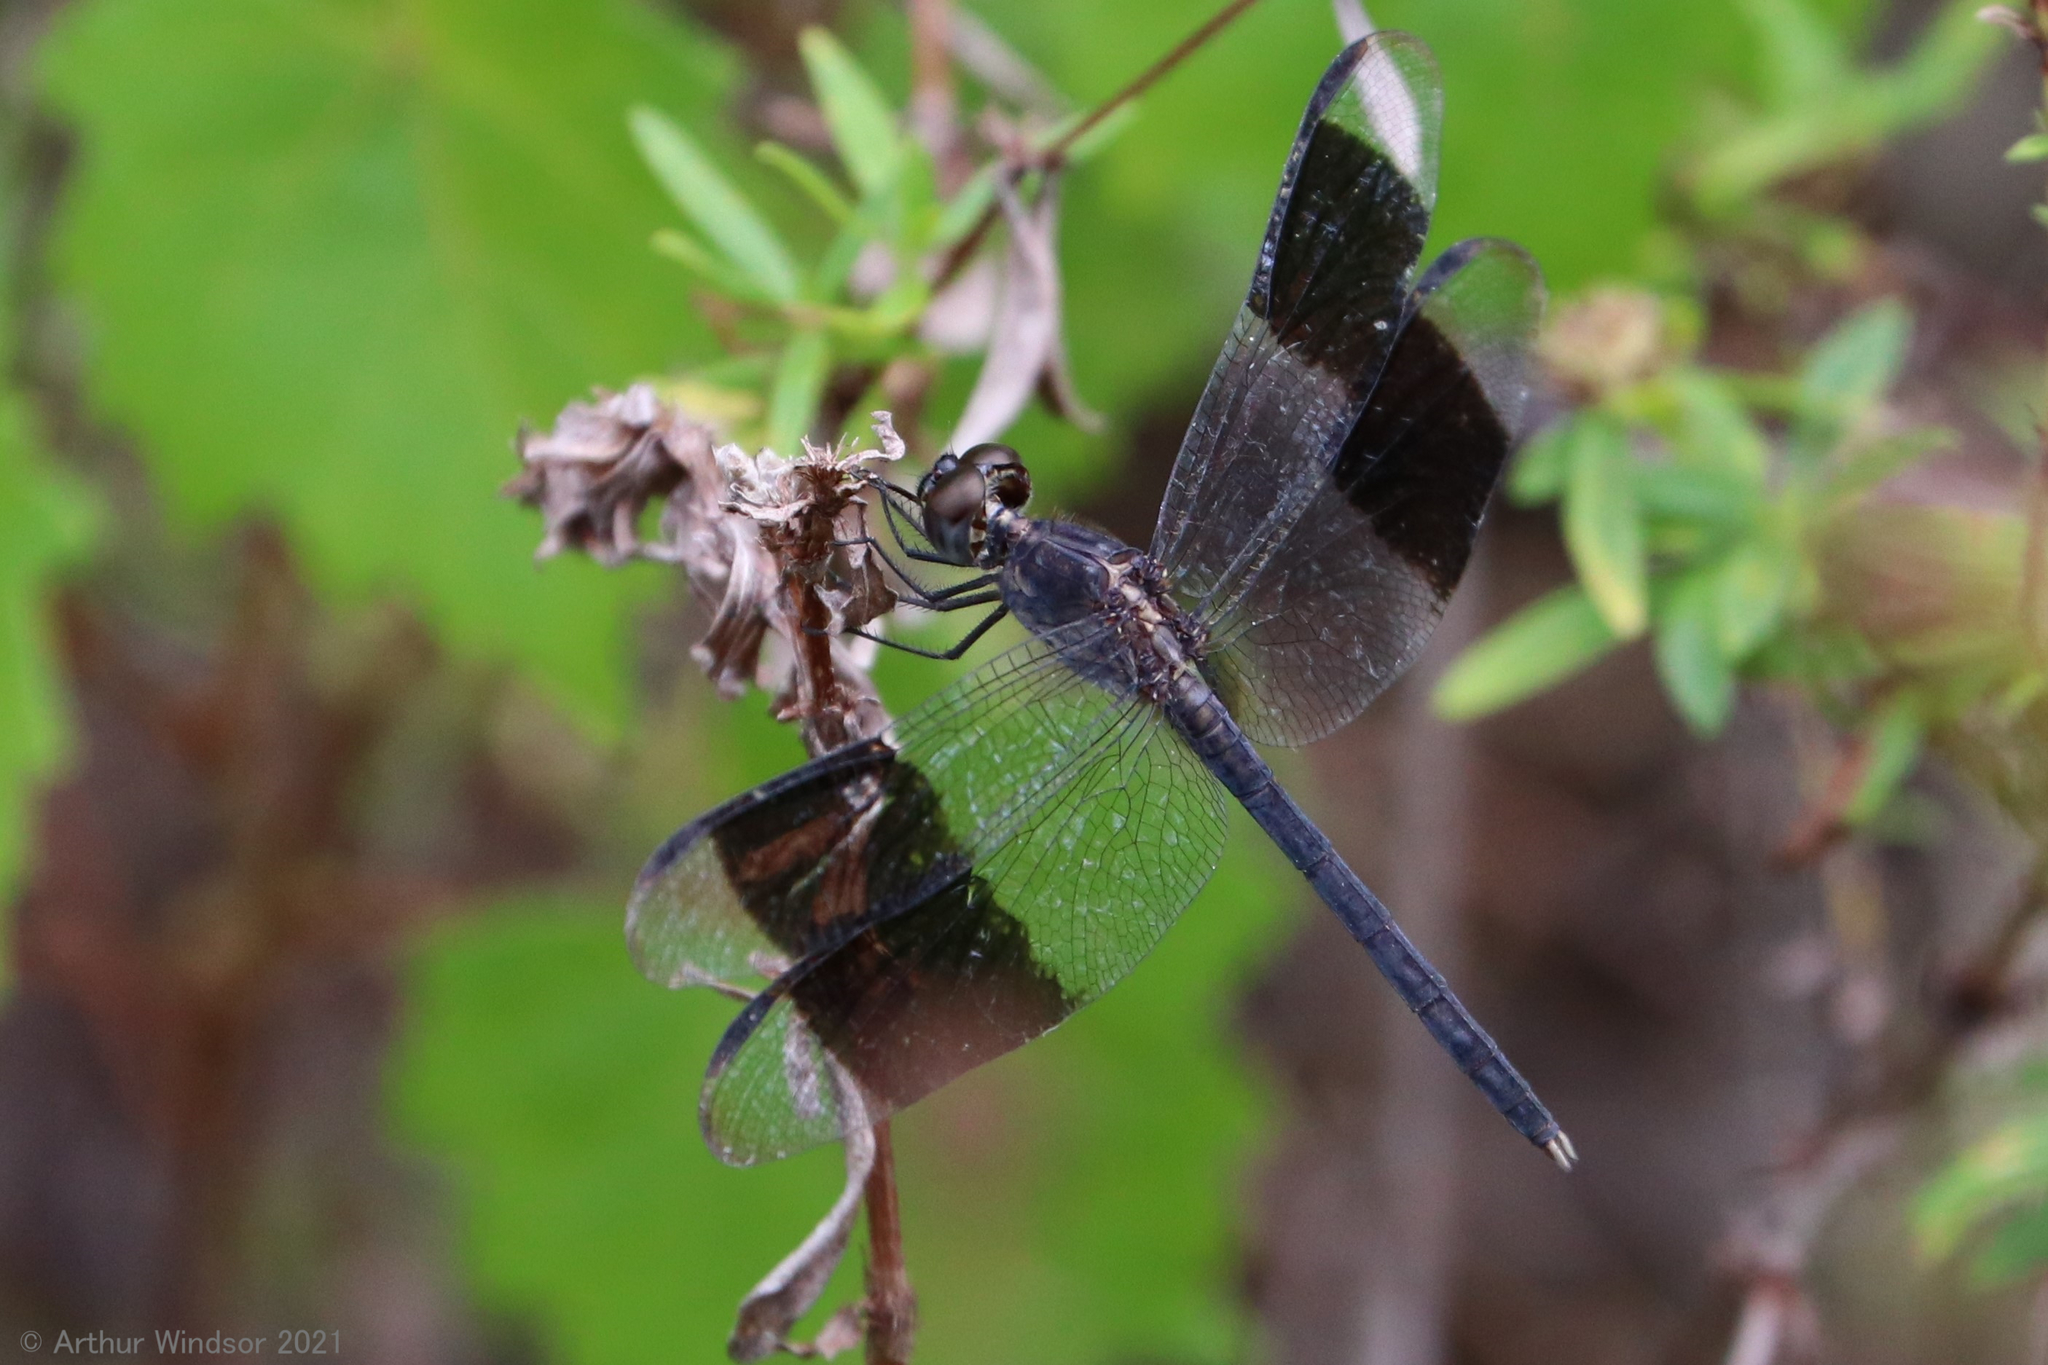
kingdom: Animalia
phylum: Arthropoda
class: Insecta
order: Odonata
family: Libellulidae
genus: Erythrodiplax
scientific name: Erythrodiplax umbrata
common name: Band-winged dragonlet
